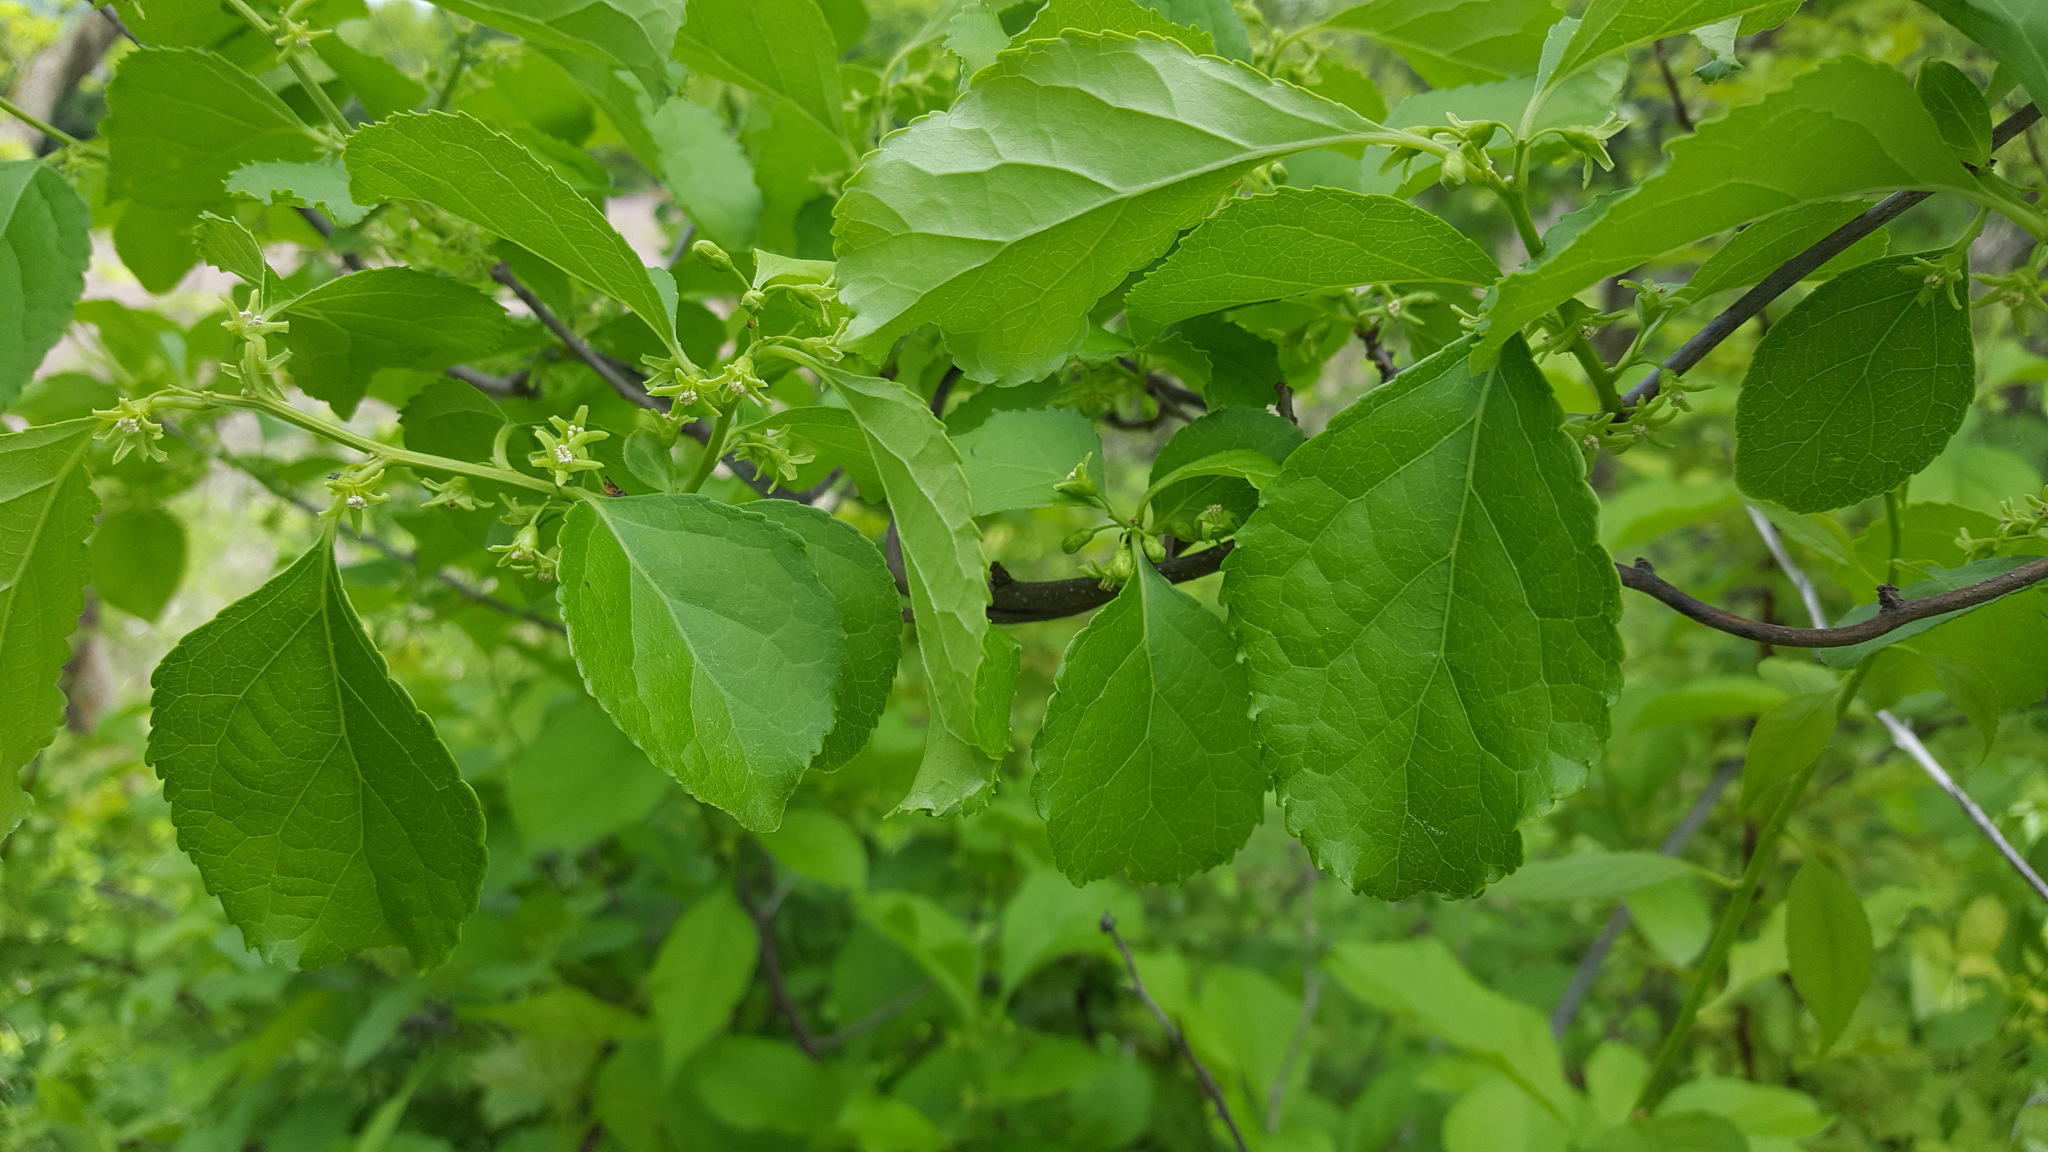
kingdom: Plantae
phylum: Tracheophyta
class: Magnoliopsida
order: Celastrales
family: Celastraceae
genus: Celastrus
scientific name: Celastrus orbiculatus
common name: Oriental bittersweet
